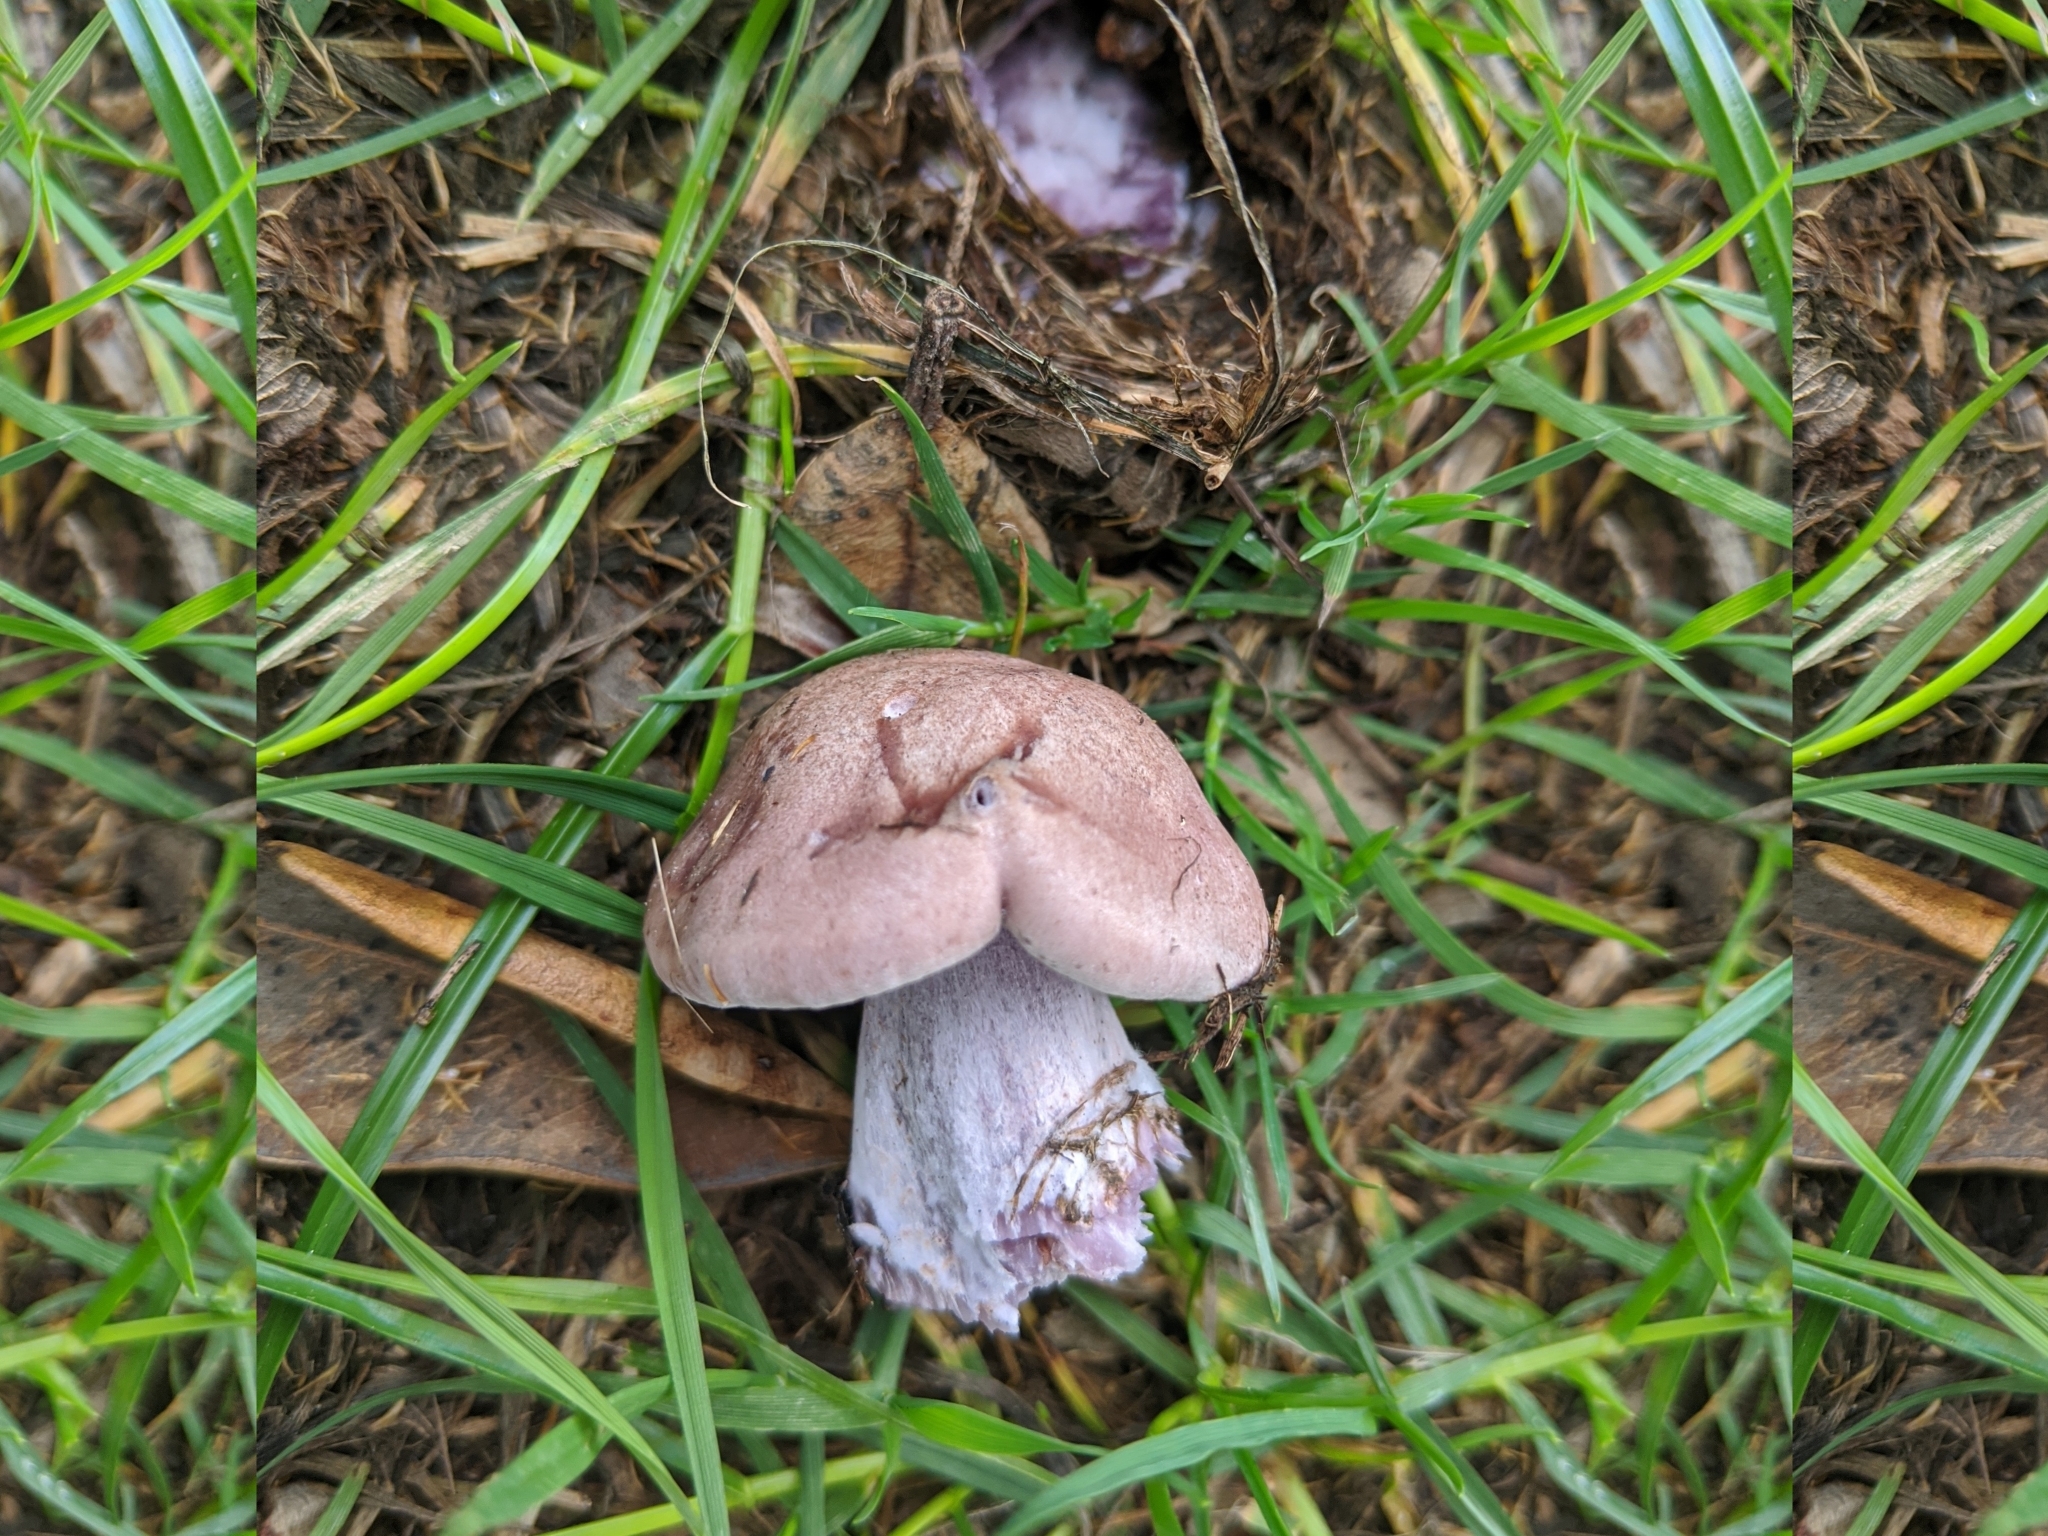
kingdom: Fungi
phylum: Basidiomycota
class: Agaricomycetes
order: Agaricales
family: Tricholomataceae
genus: Collybia
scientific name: Collybia
